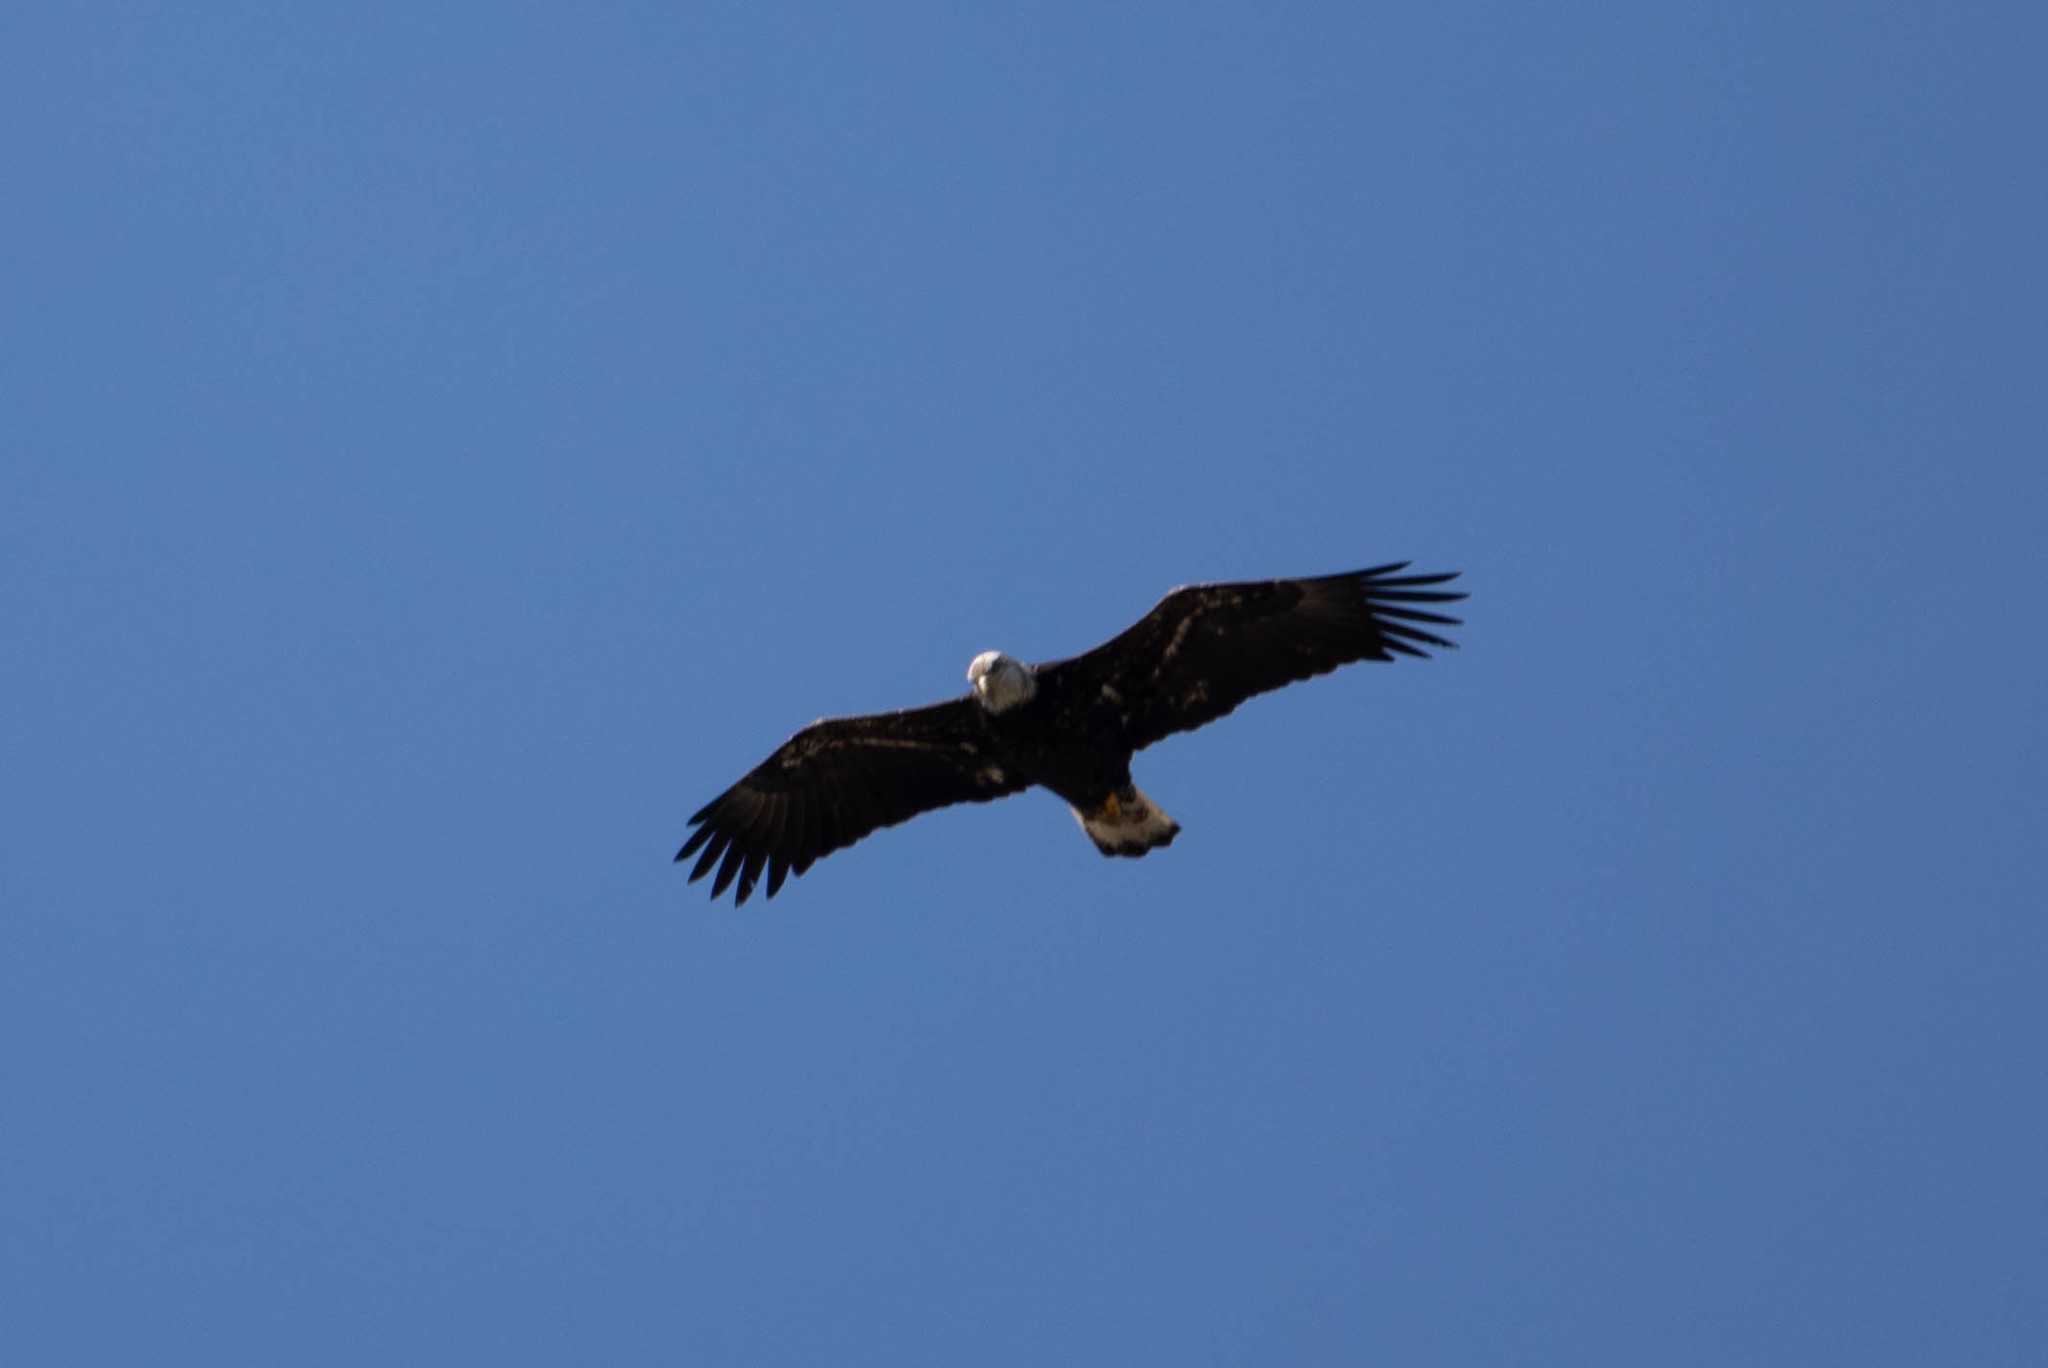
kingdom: Animalia
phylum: Chordata
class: Aves
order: Accipitriformes
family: Accipitridae
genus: Haliaeetus
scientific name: Haliaeetus leucocephalus
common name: Bald eagle
